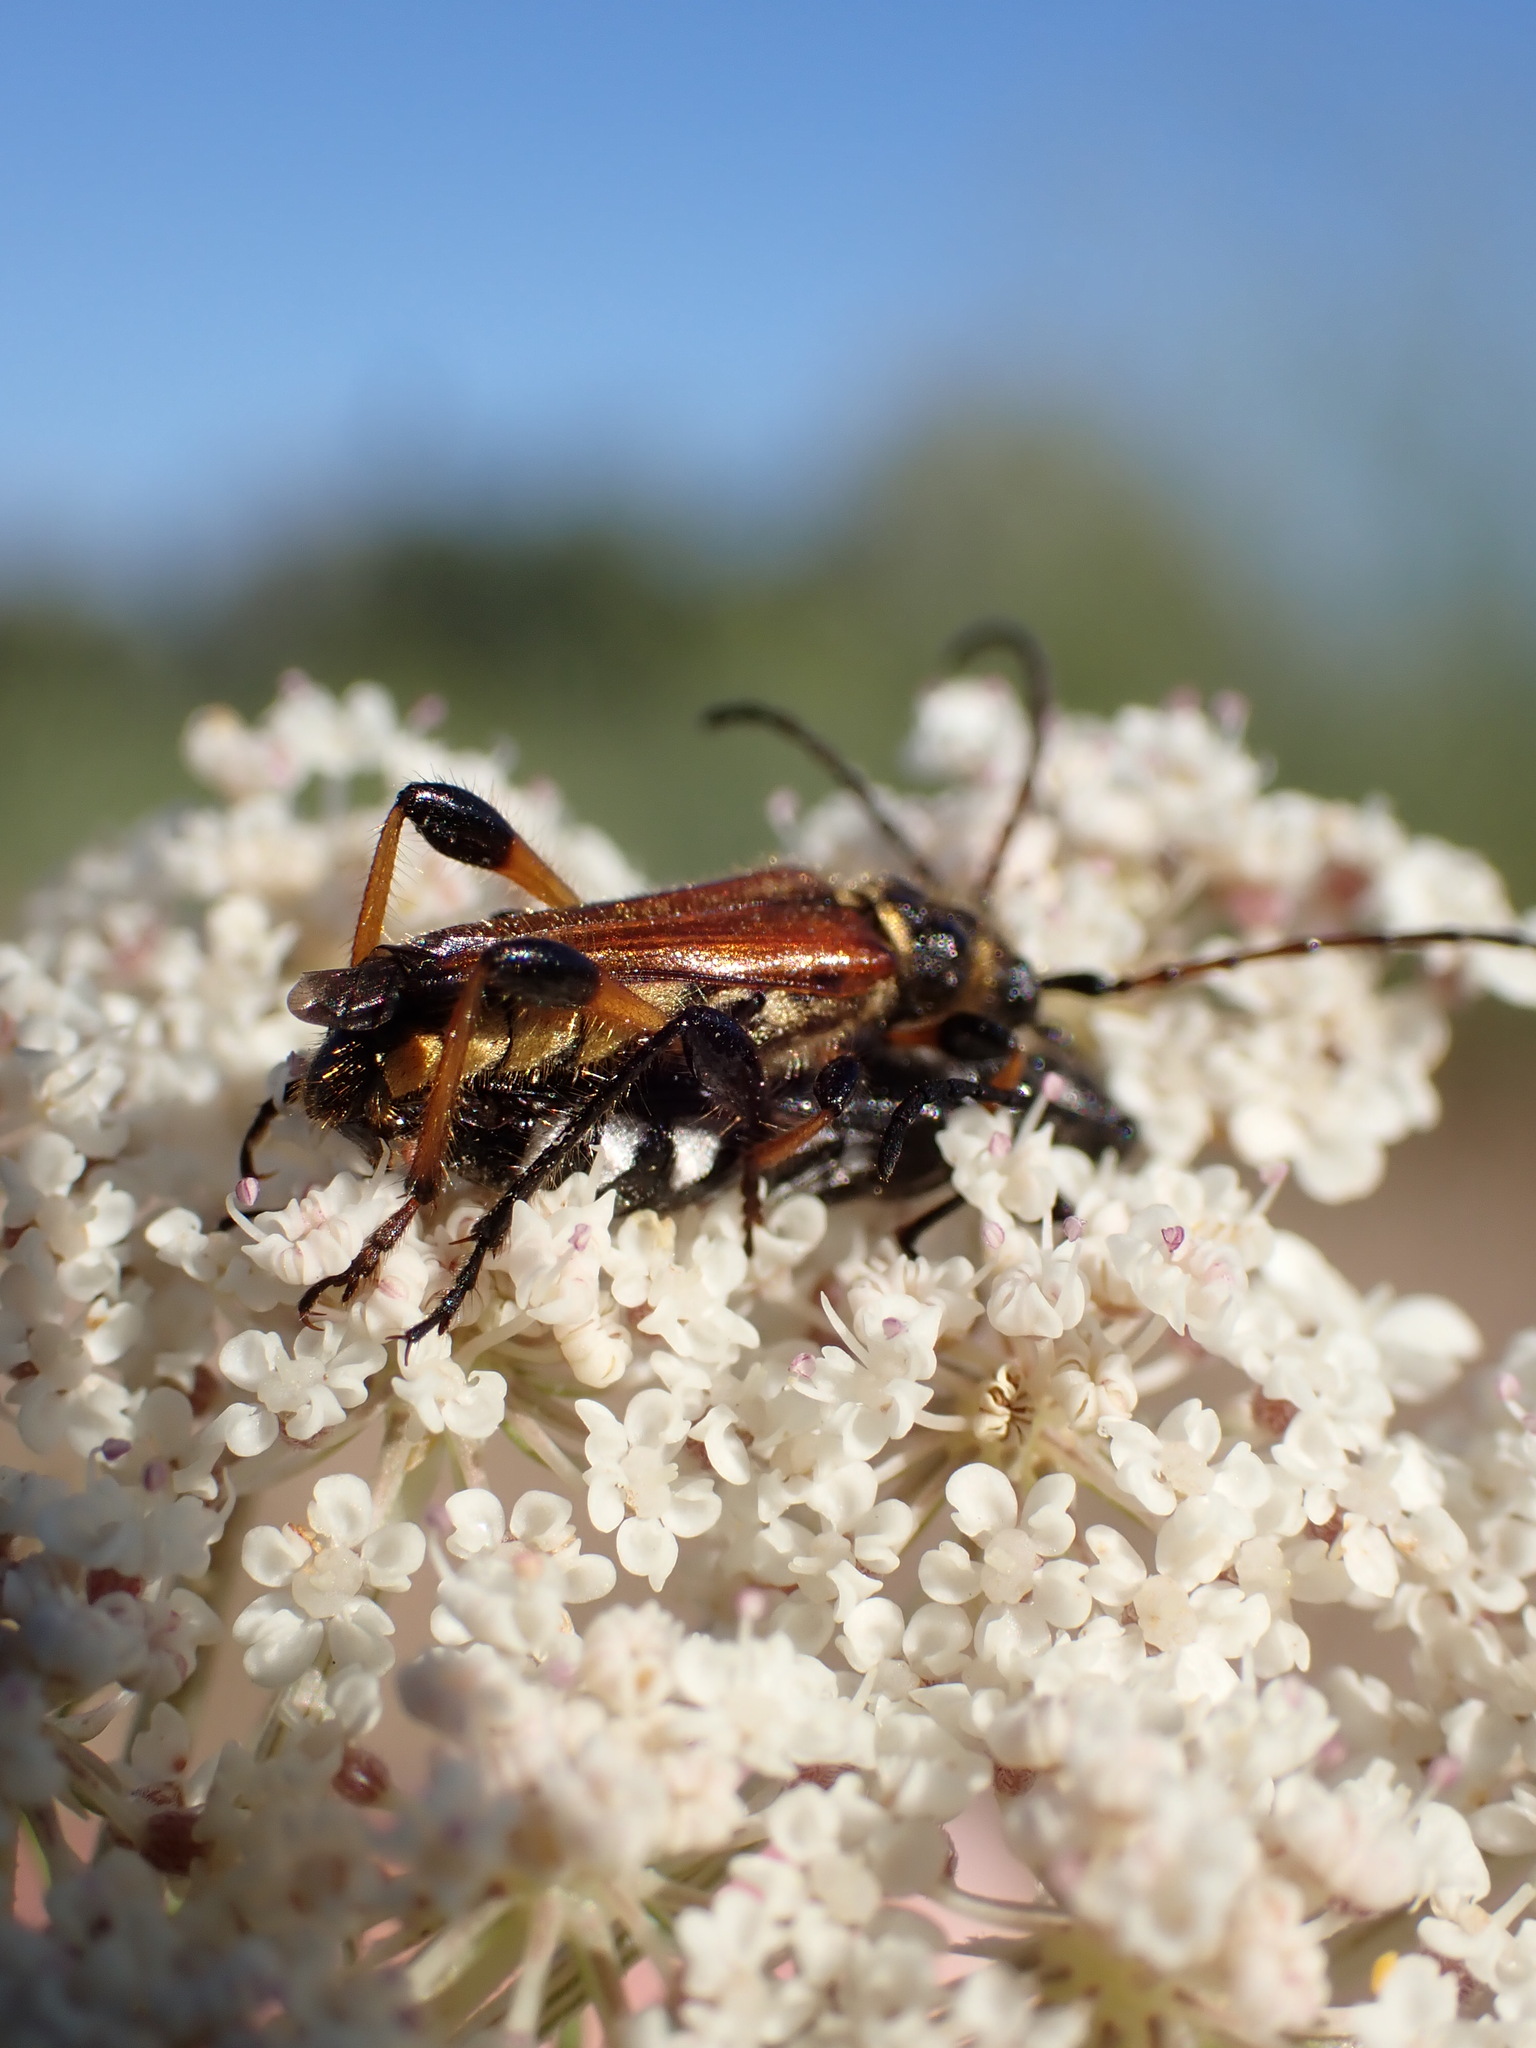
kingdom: Animalia
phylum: Arthropoda
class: Insecta
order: Coleoptera
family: Cerambycidae
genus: Stenopterus
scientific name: Stenopterus rufus
